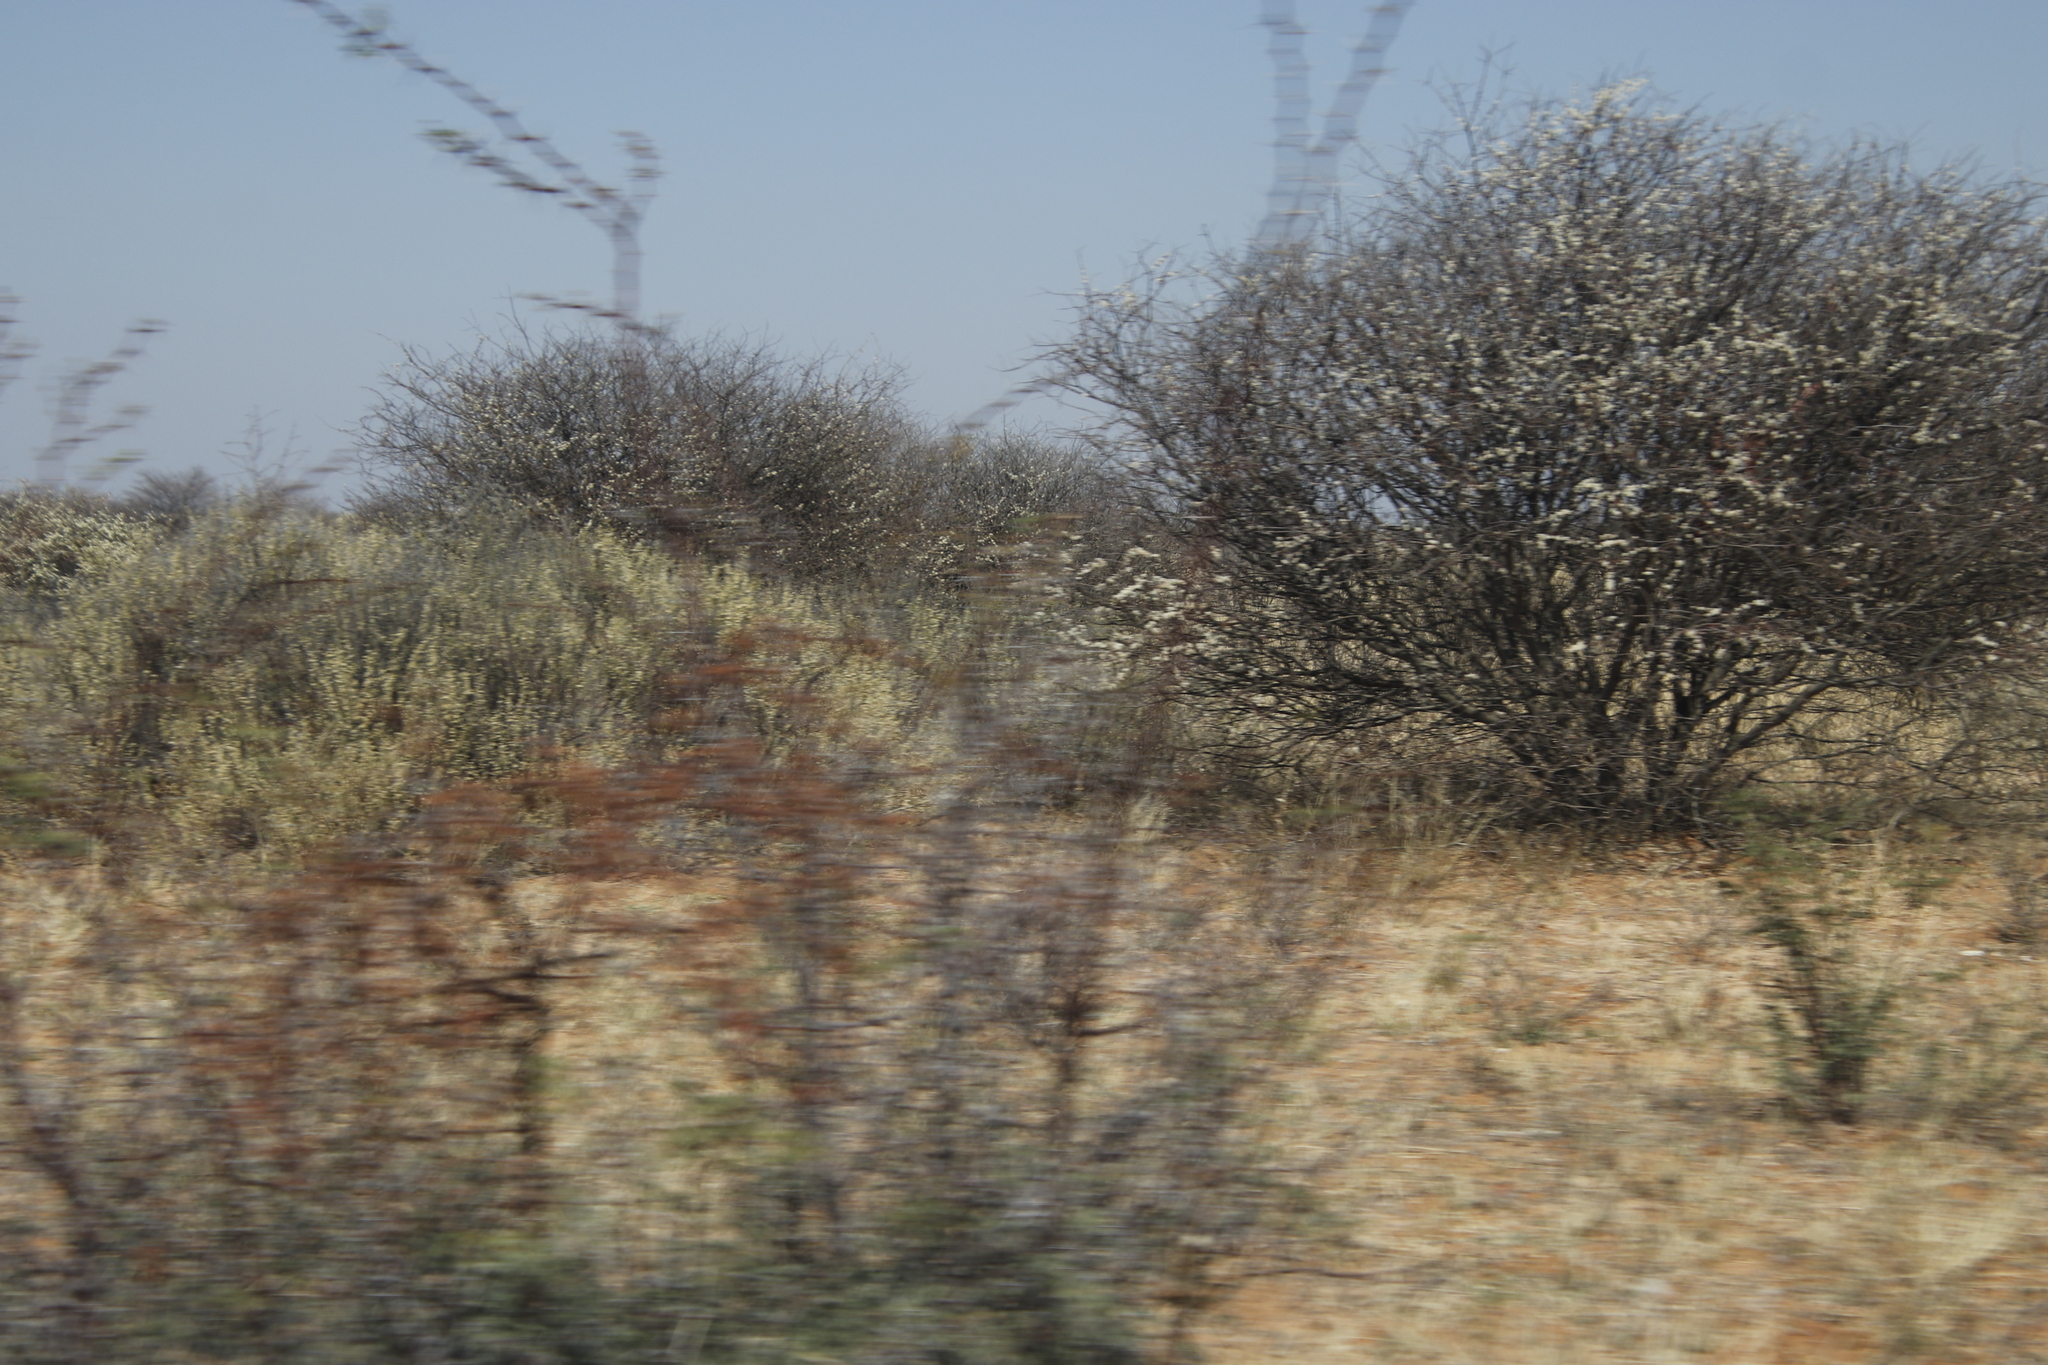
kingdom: Plantae
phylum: Tracheophyta
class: Magnoliopsida
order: Fabales
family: Fabaceae
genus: Senegalia
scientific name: Senegalia mellifera
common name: Hookthorn
